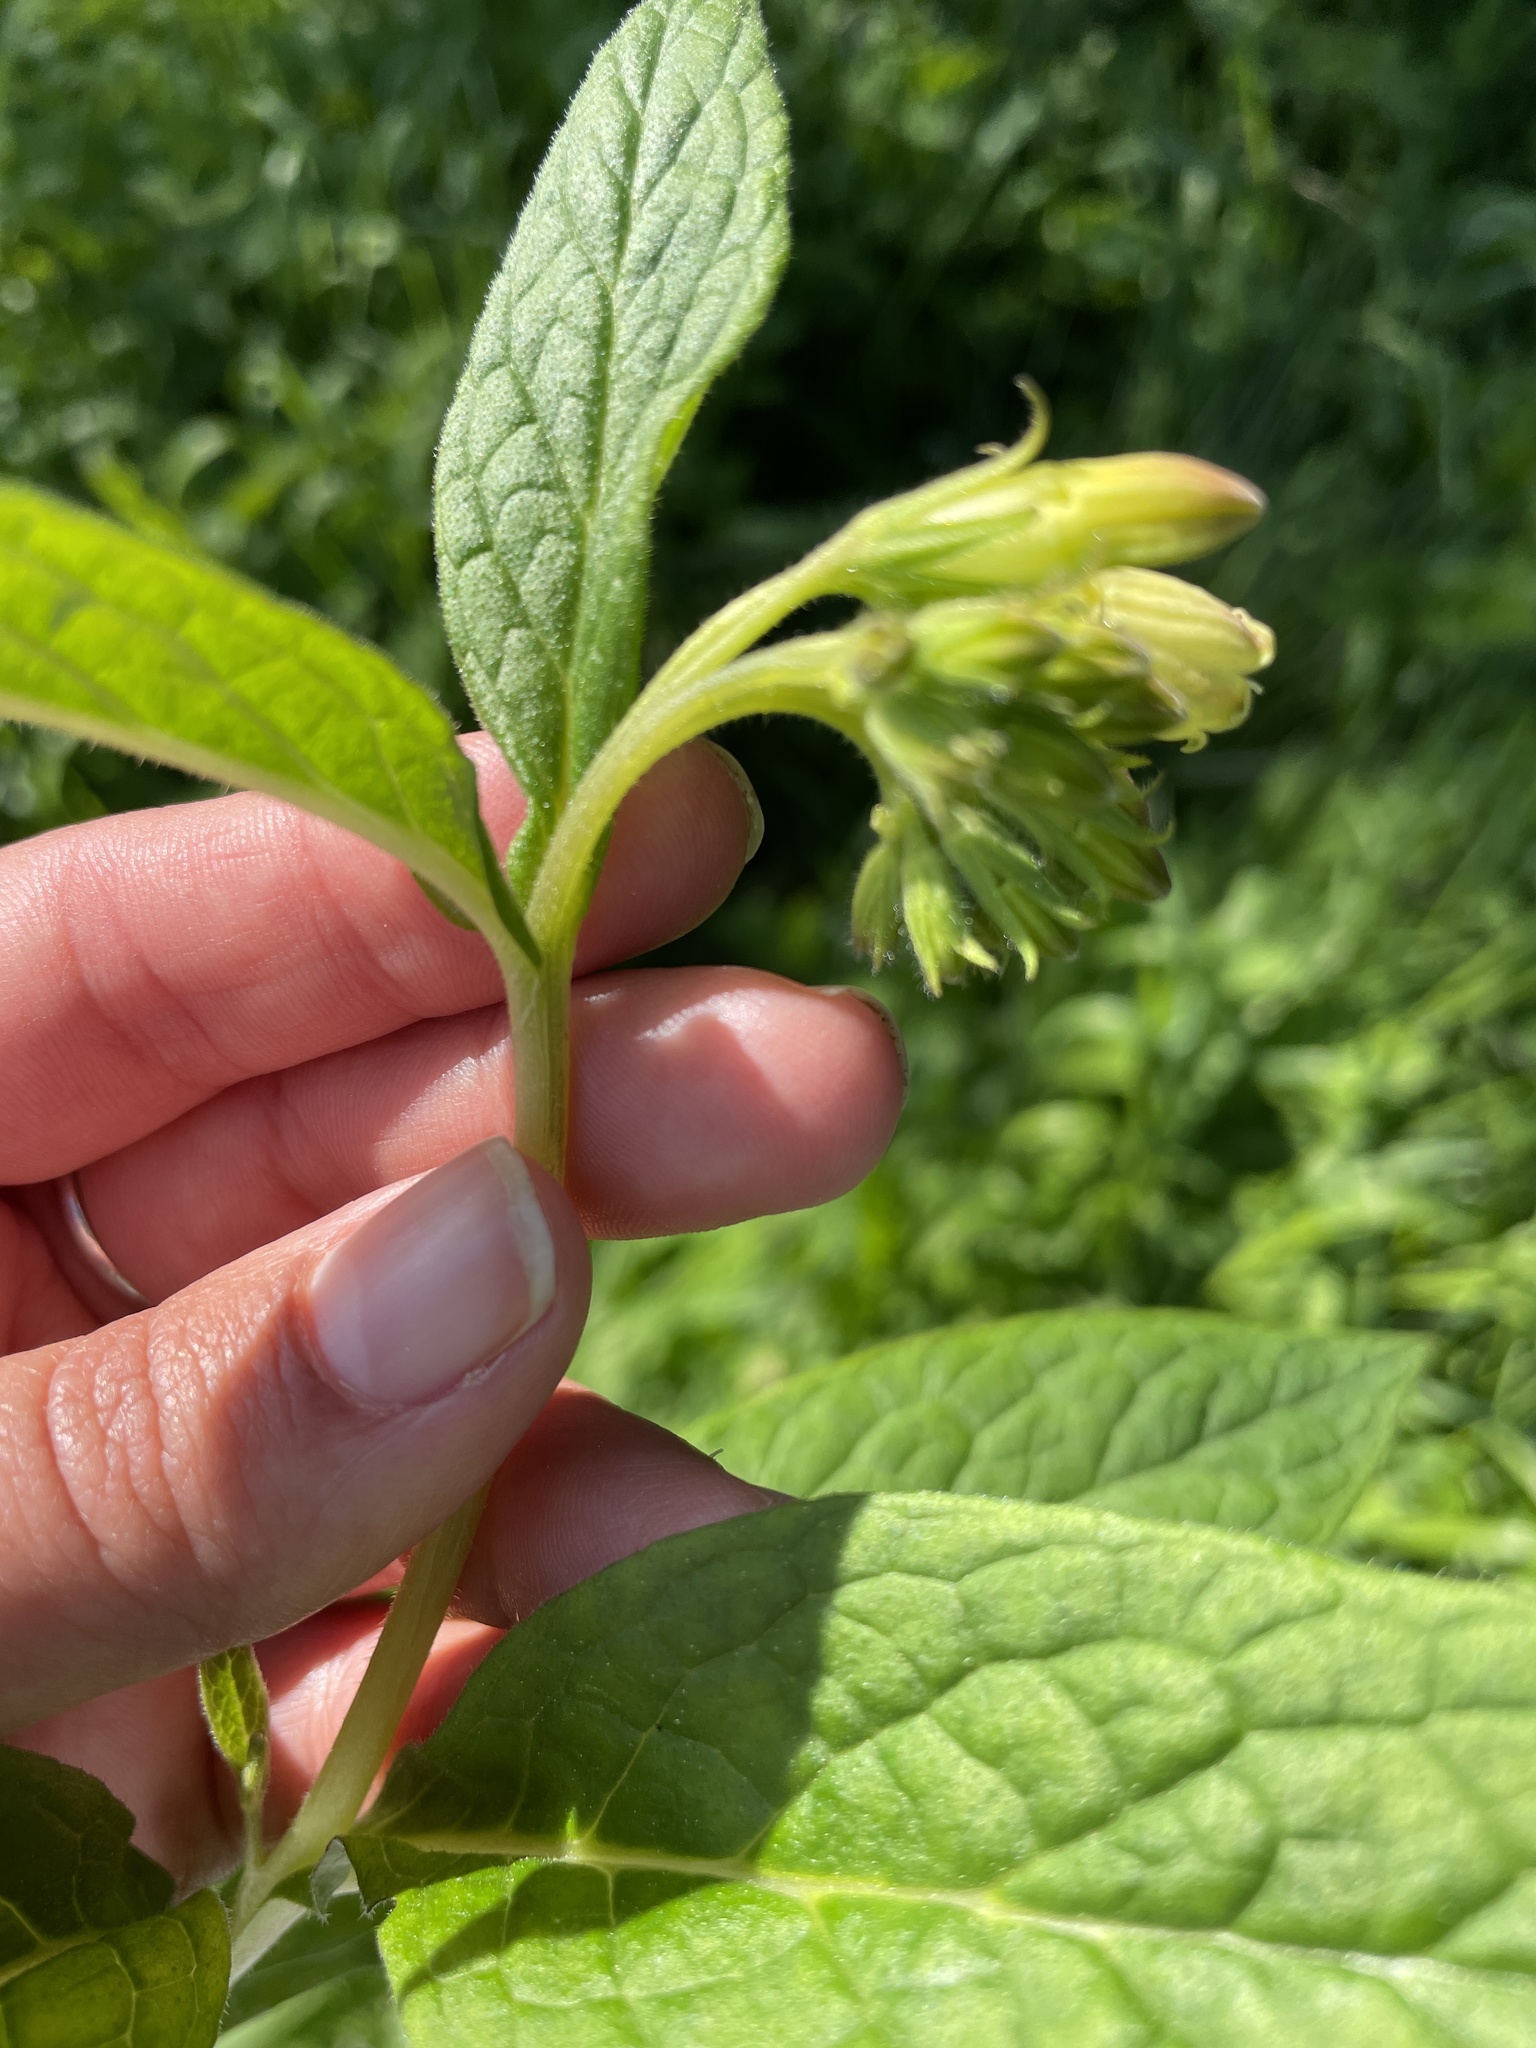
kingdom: Plantae
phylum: Tracheophyta
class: Magnoliopsida
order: Boraginales
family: Boraginaceae
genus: Symphytum
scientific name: Symphytum tuberosum
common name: Tuberous comfrey
